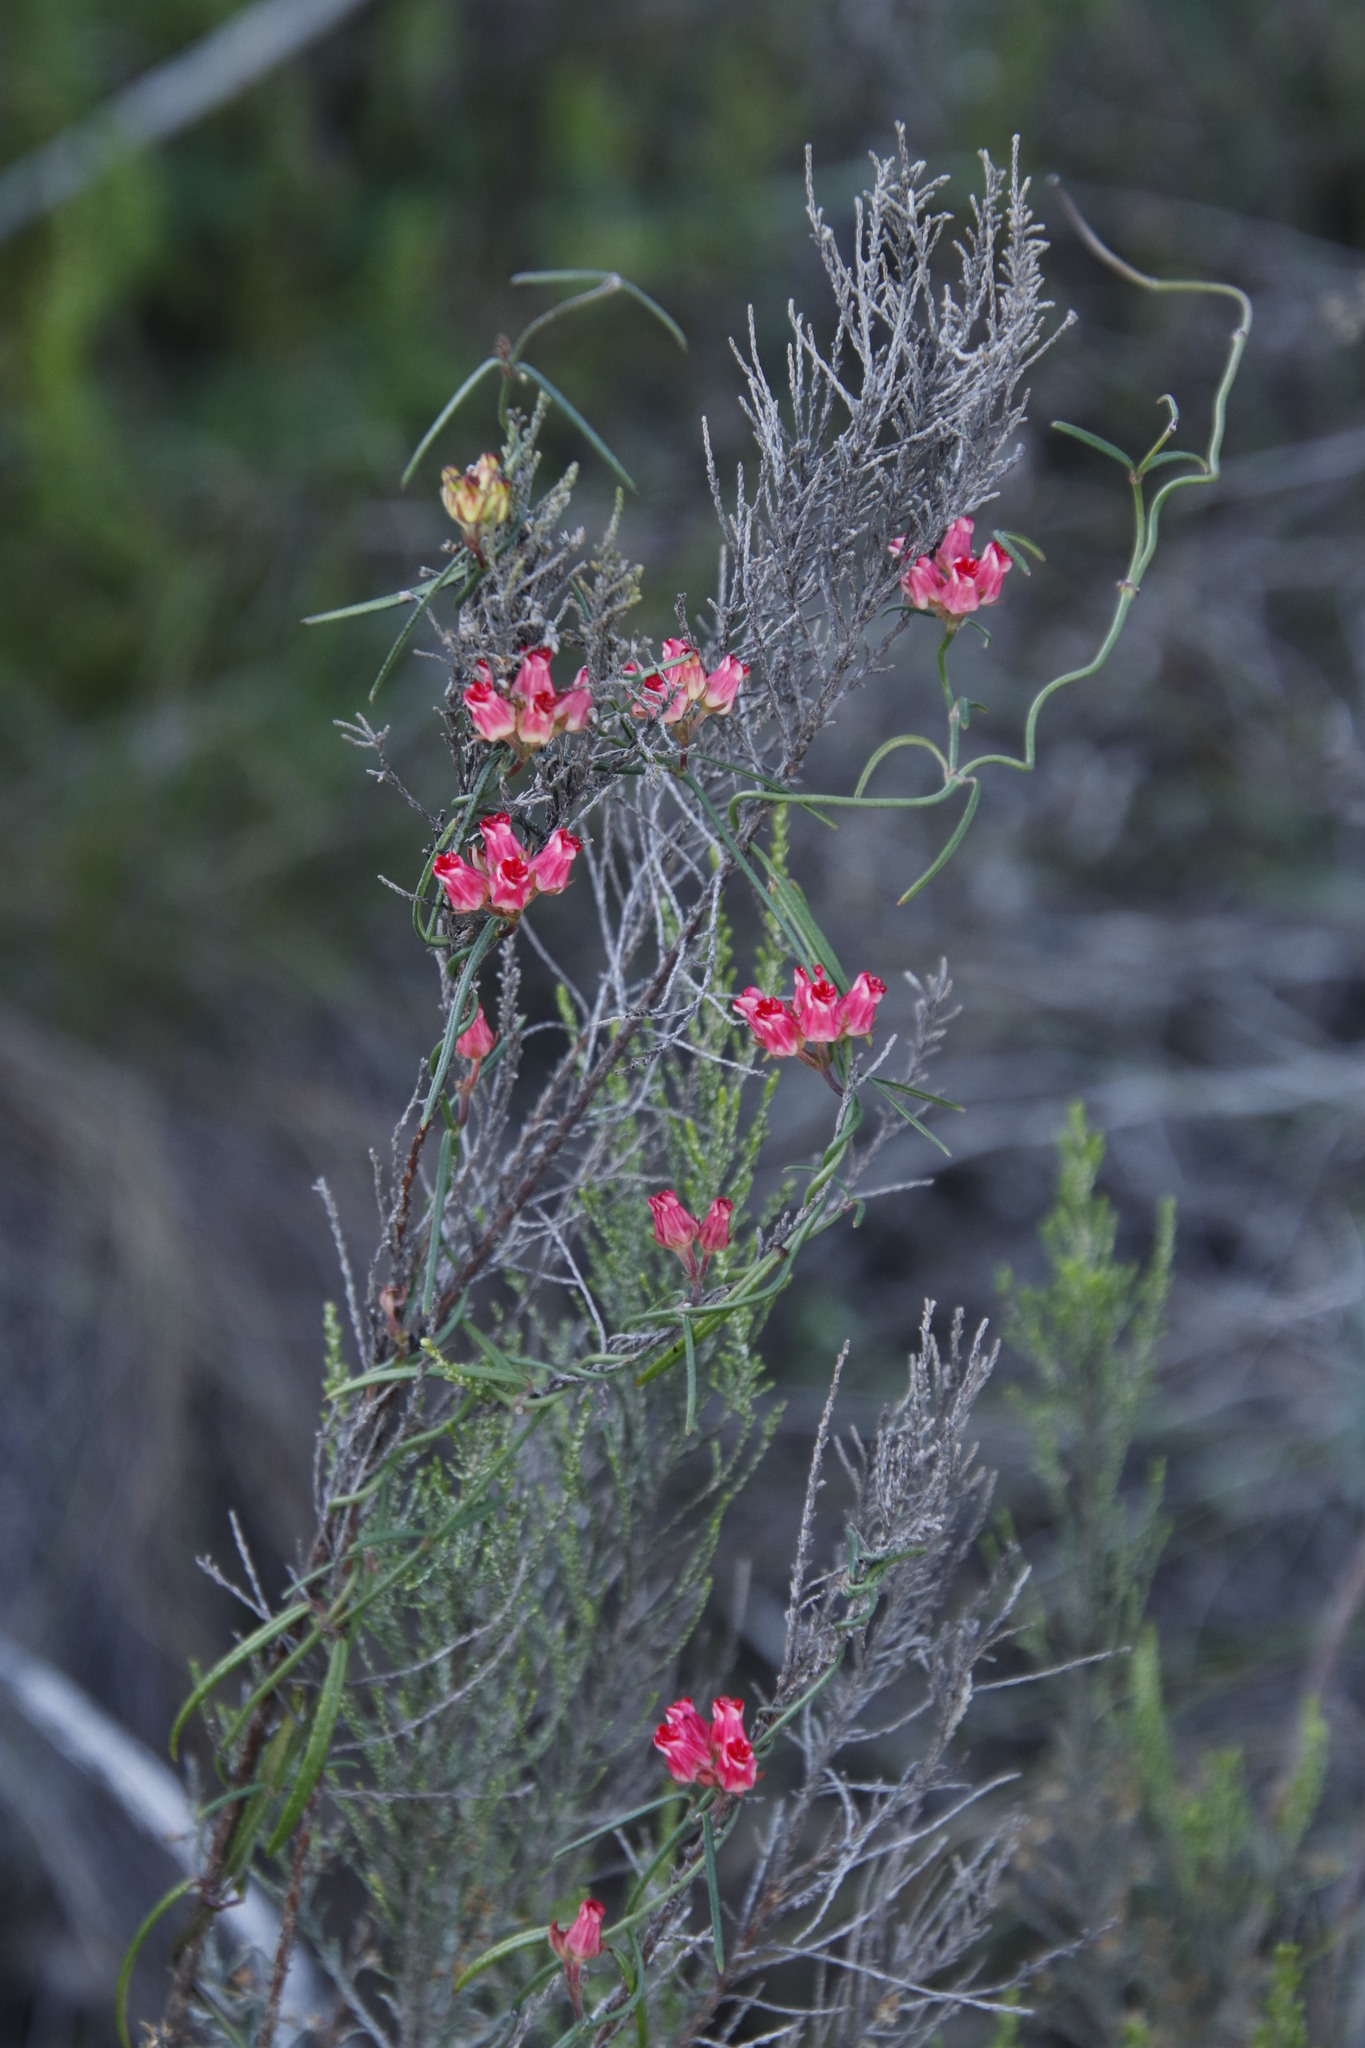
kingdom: Plantae
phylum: Tracheophyta
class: Magnoliopsida
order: Gentianales
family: Apocynaceae
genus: Microloma
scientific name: Microloma tenuifolium
